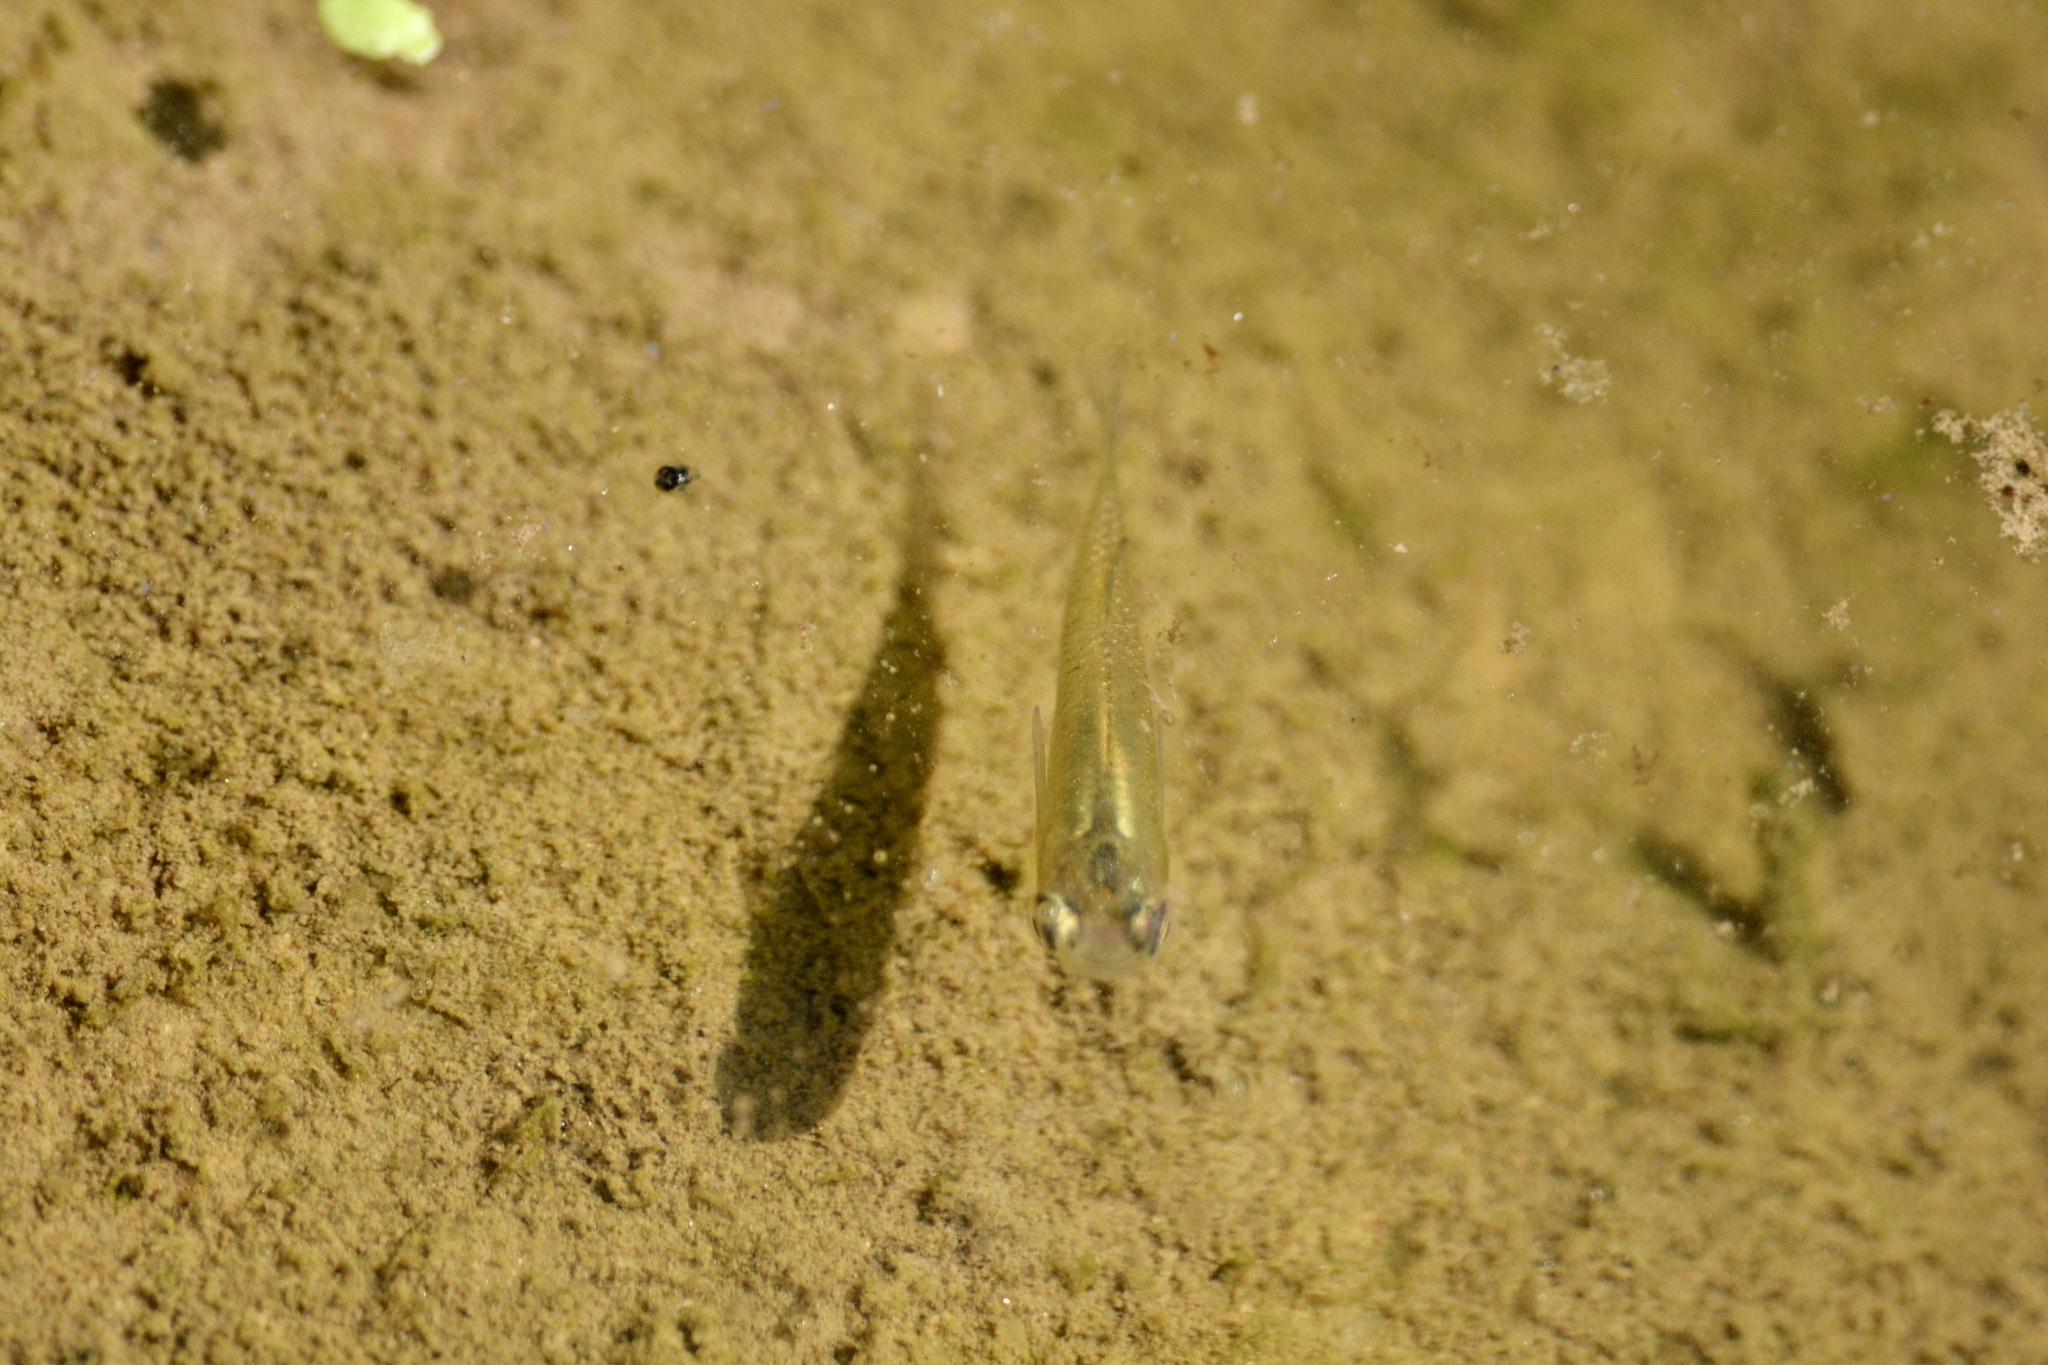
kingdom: Animalia
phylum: Chordata
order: Cyprinodontiformes
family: Poeciliidae
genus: Gambusia
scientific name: Gambusia holbrooki
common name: Eastern mosquitofish
